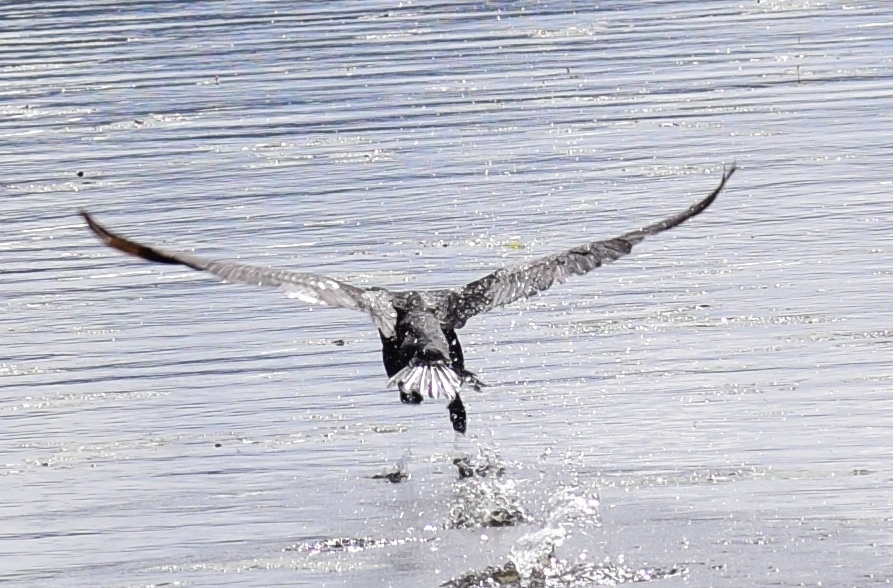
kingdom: Animalia
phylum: Chordata
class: Aves
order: Suliformes
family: Phalacrocoracidae
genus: Phalacrocorax
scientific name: Phalacrocorax auritus
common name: Double-crested cormorant
